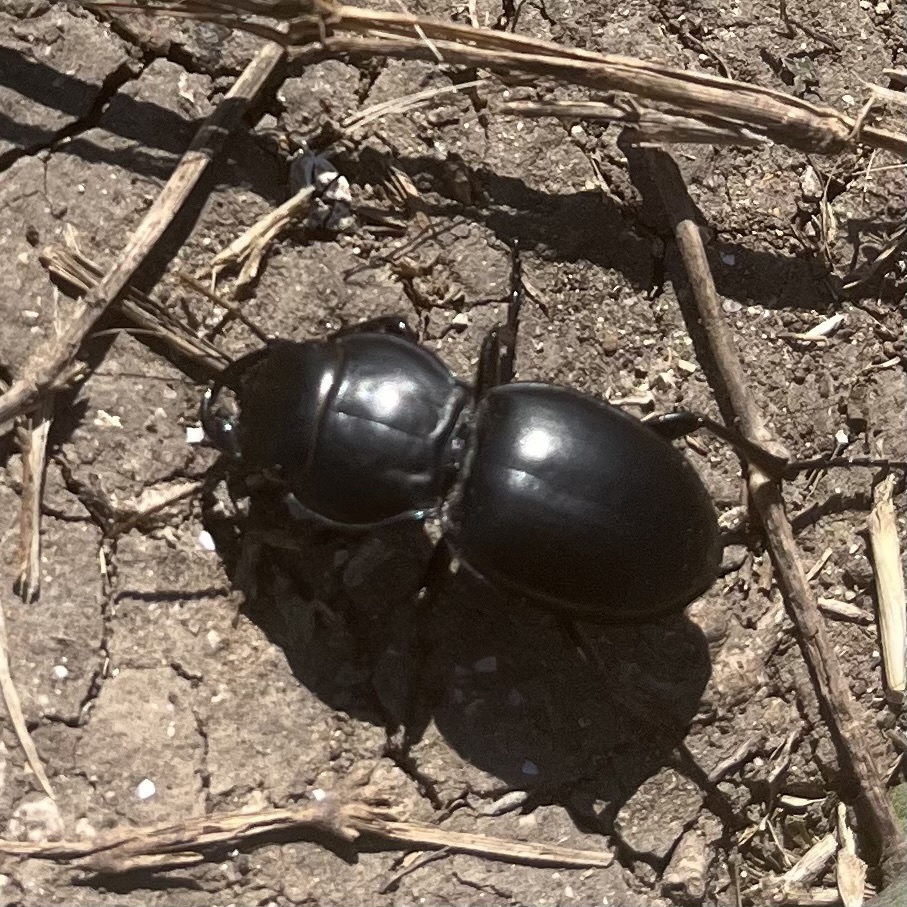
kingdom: Animalia
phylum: Arthropoda
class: Insecta
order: Coleoptera
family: Carabidae
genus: Pasimachus
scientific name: Pasimachus californicus
